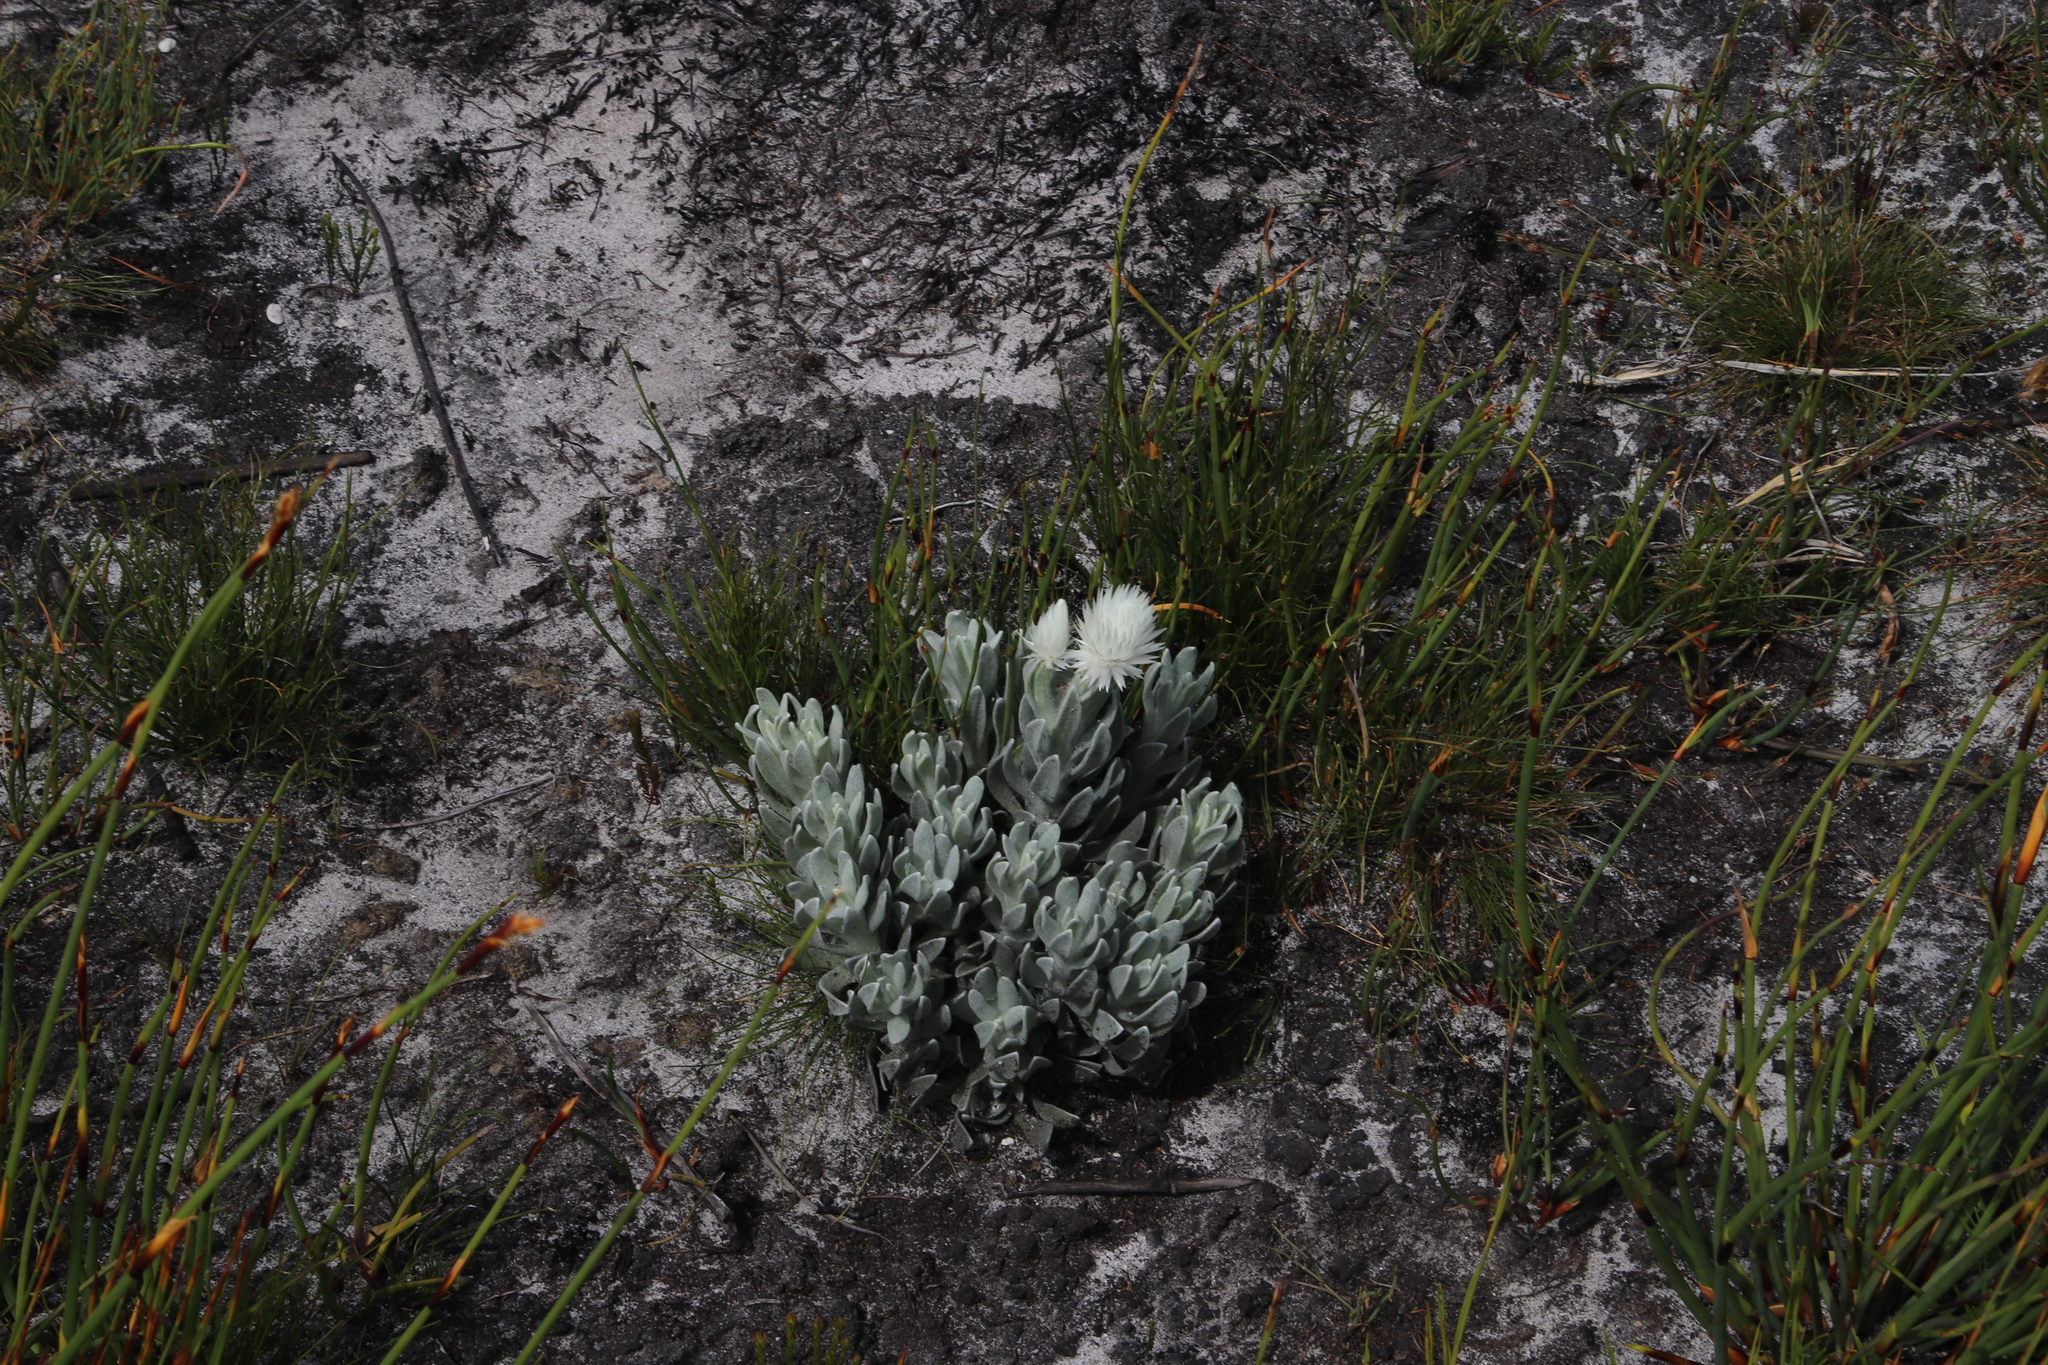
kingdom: Plantae
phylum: Tracheophyta
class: Magnoliopsida
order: Asterales
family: Asteraceae
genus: Syncarpha
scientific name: Syncarpha vestita
